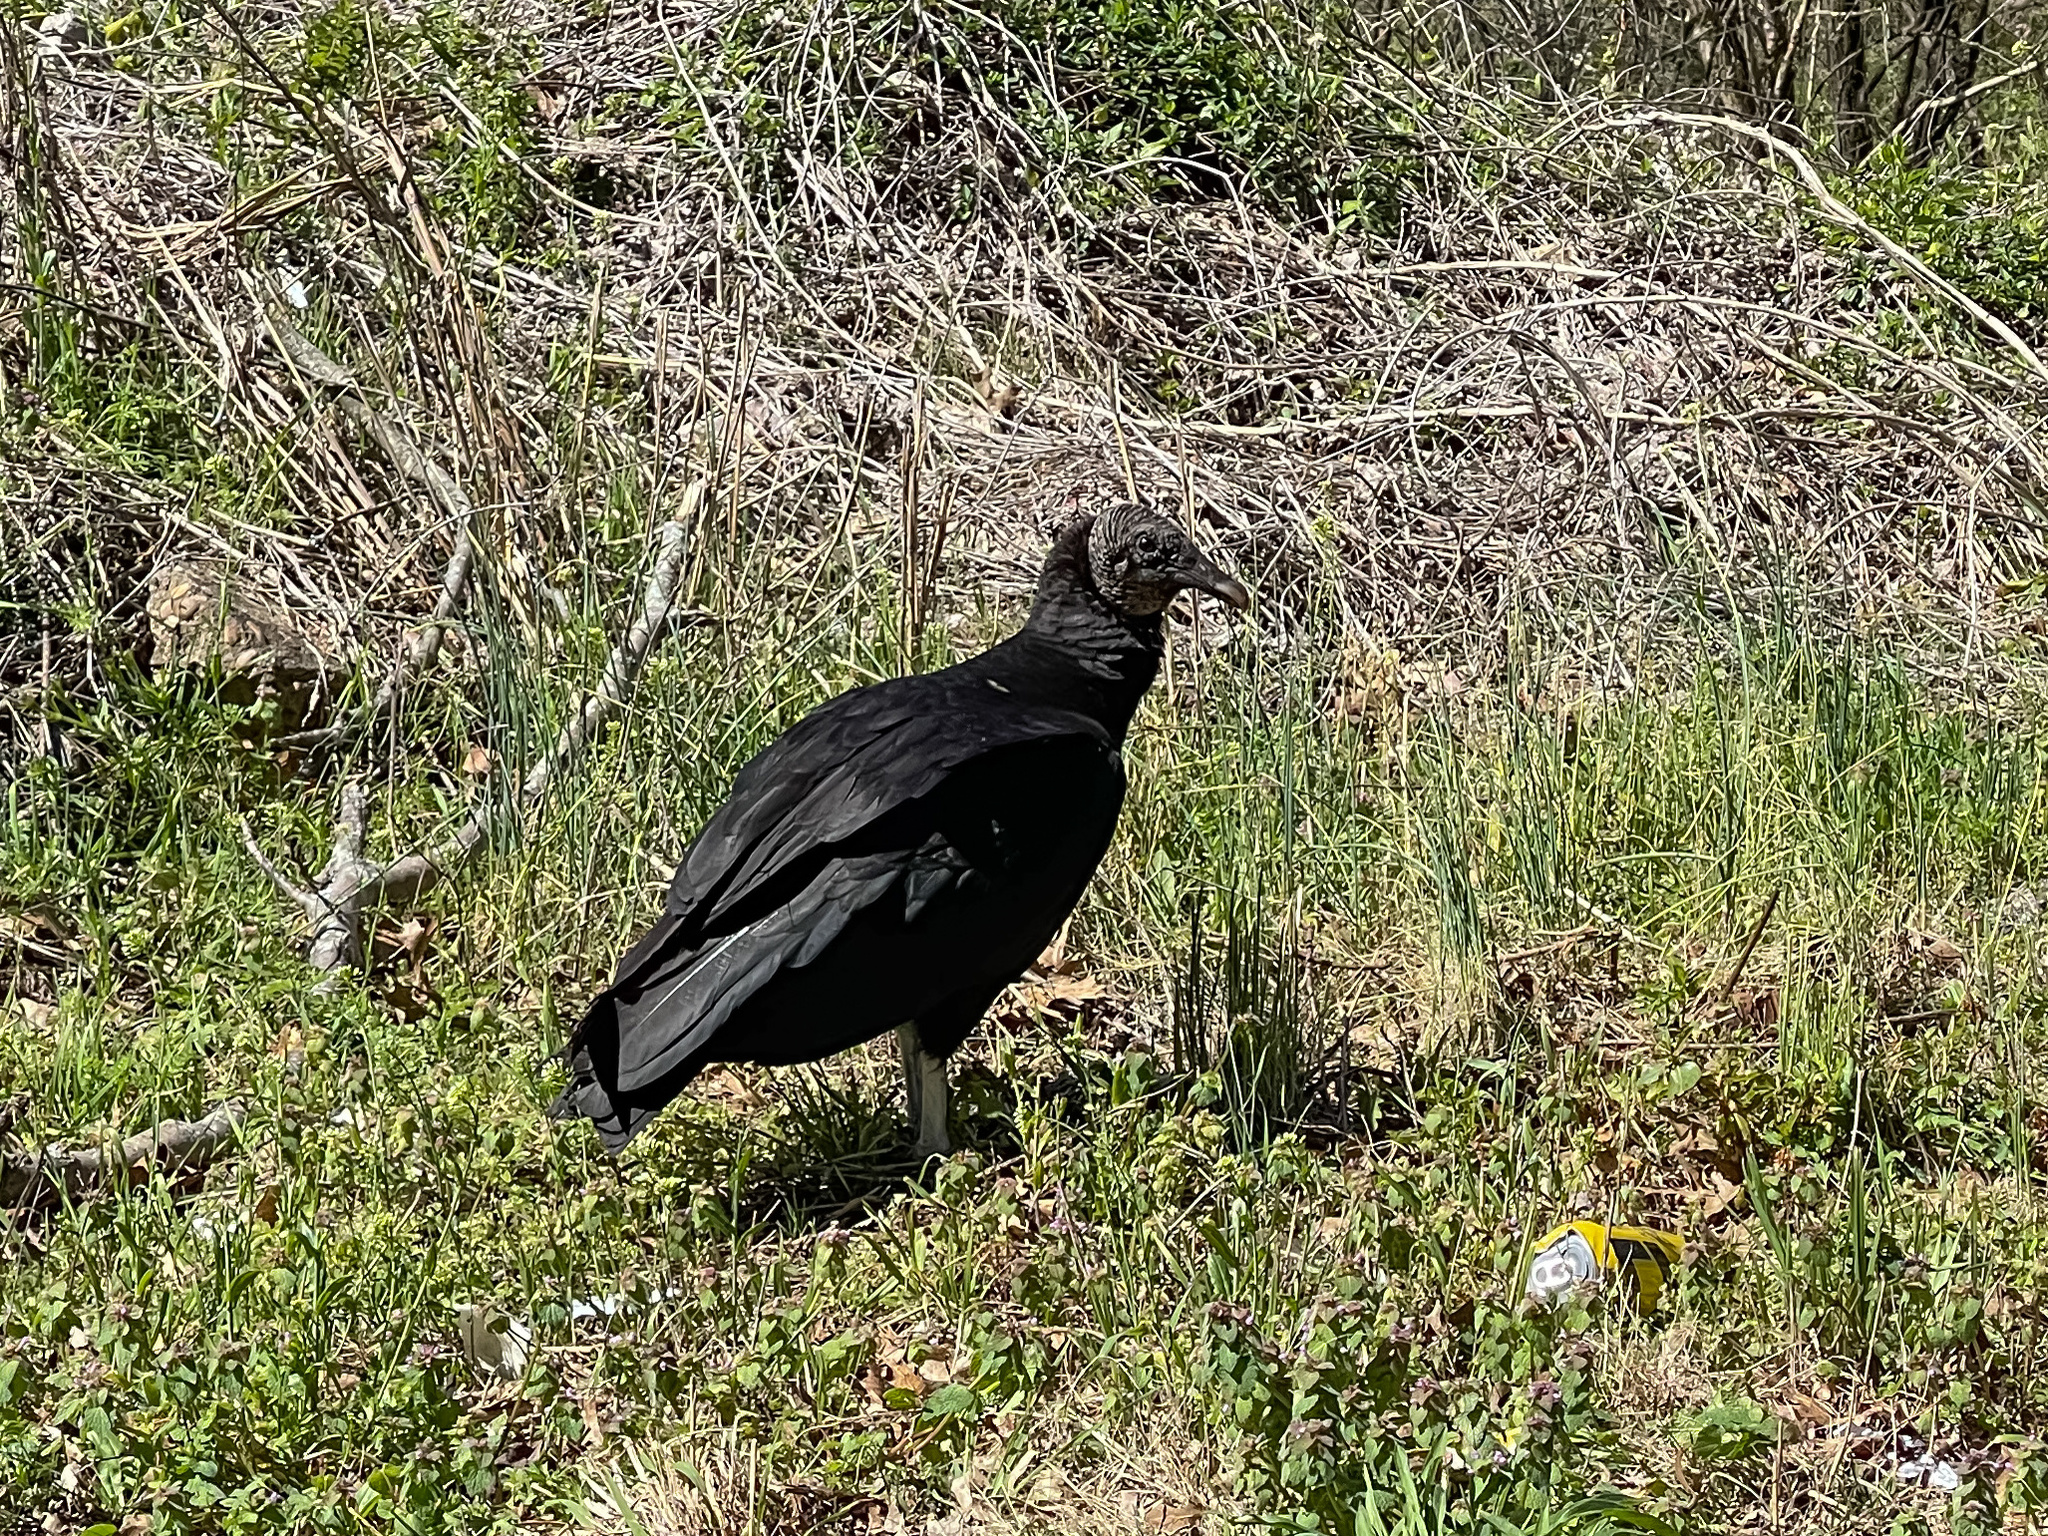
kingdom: Animalia
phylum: Chordata
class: Aves
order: Accipitriformes
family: Cathartidae
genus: Coragyps
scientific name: Coragyps atratus
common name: Black vulture
